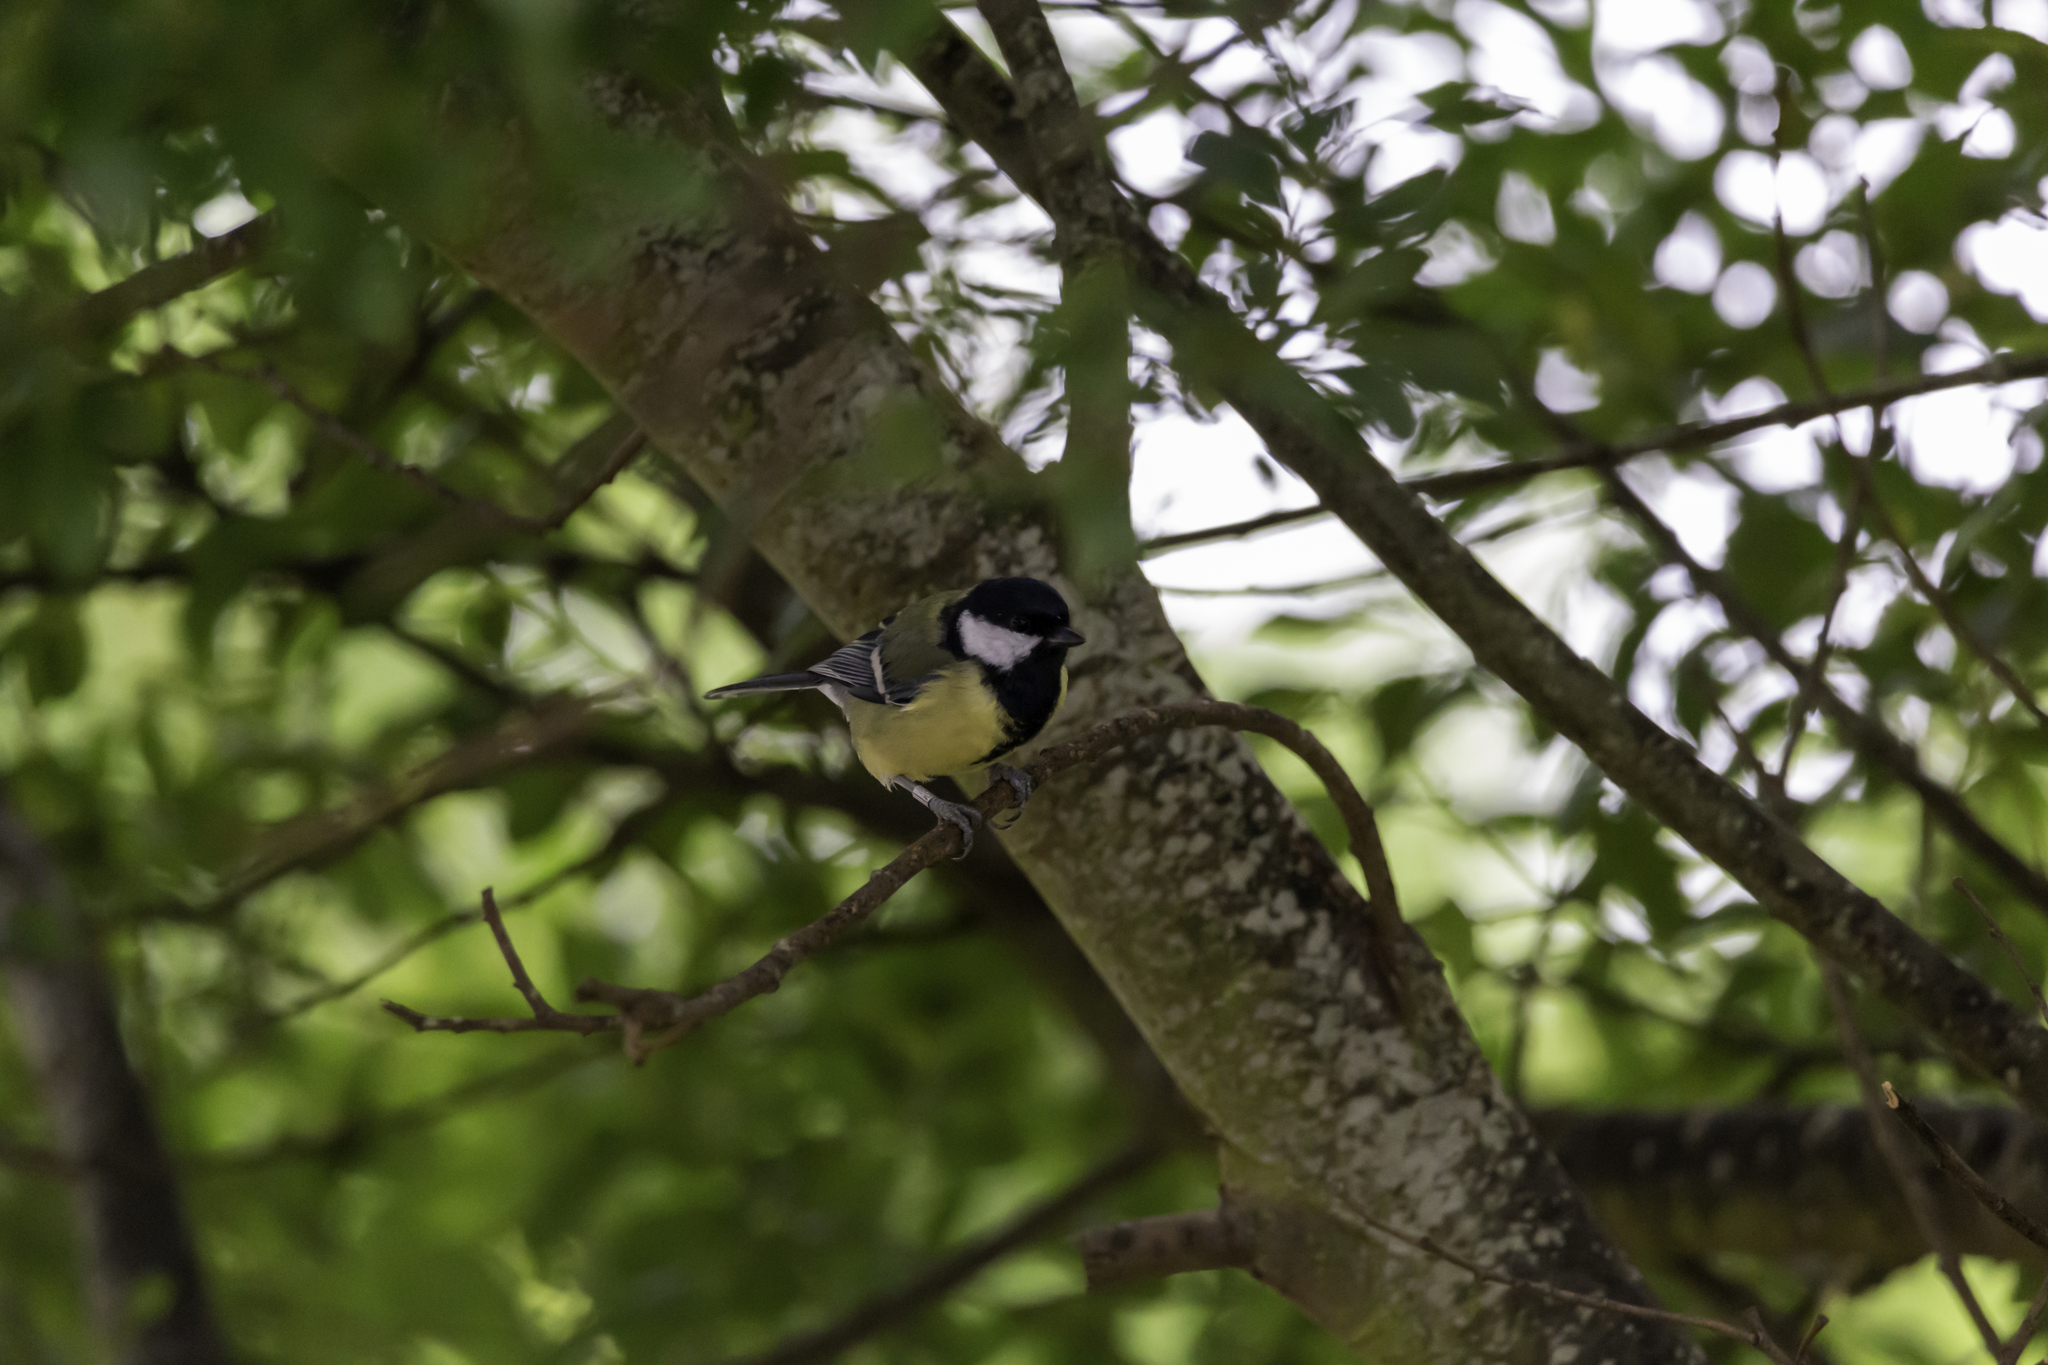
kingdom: Animalia
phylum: Chordata
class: Aves
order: Passeriformes
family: Paridae
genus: Parus
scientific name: Parus major
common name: Great tit
